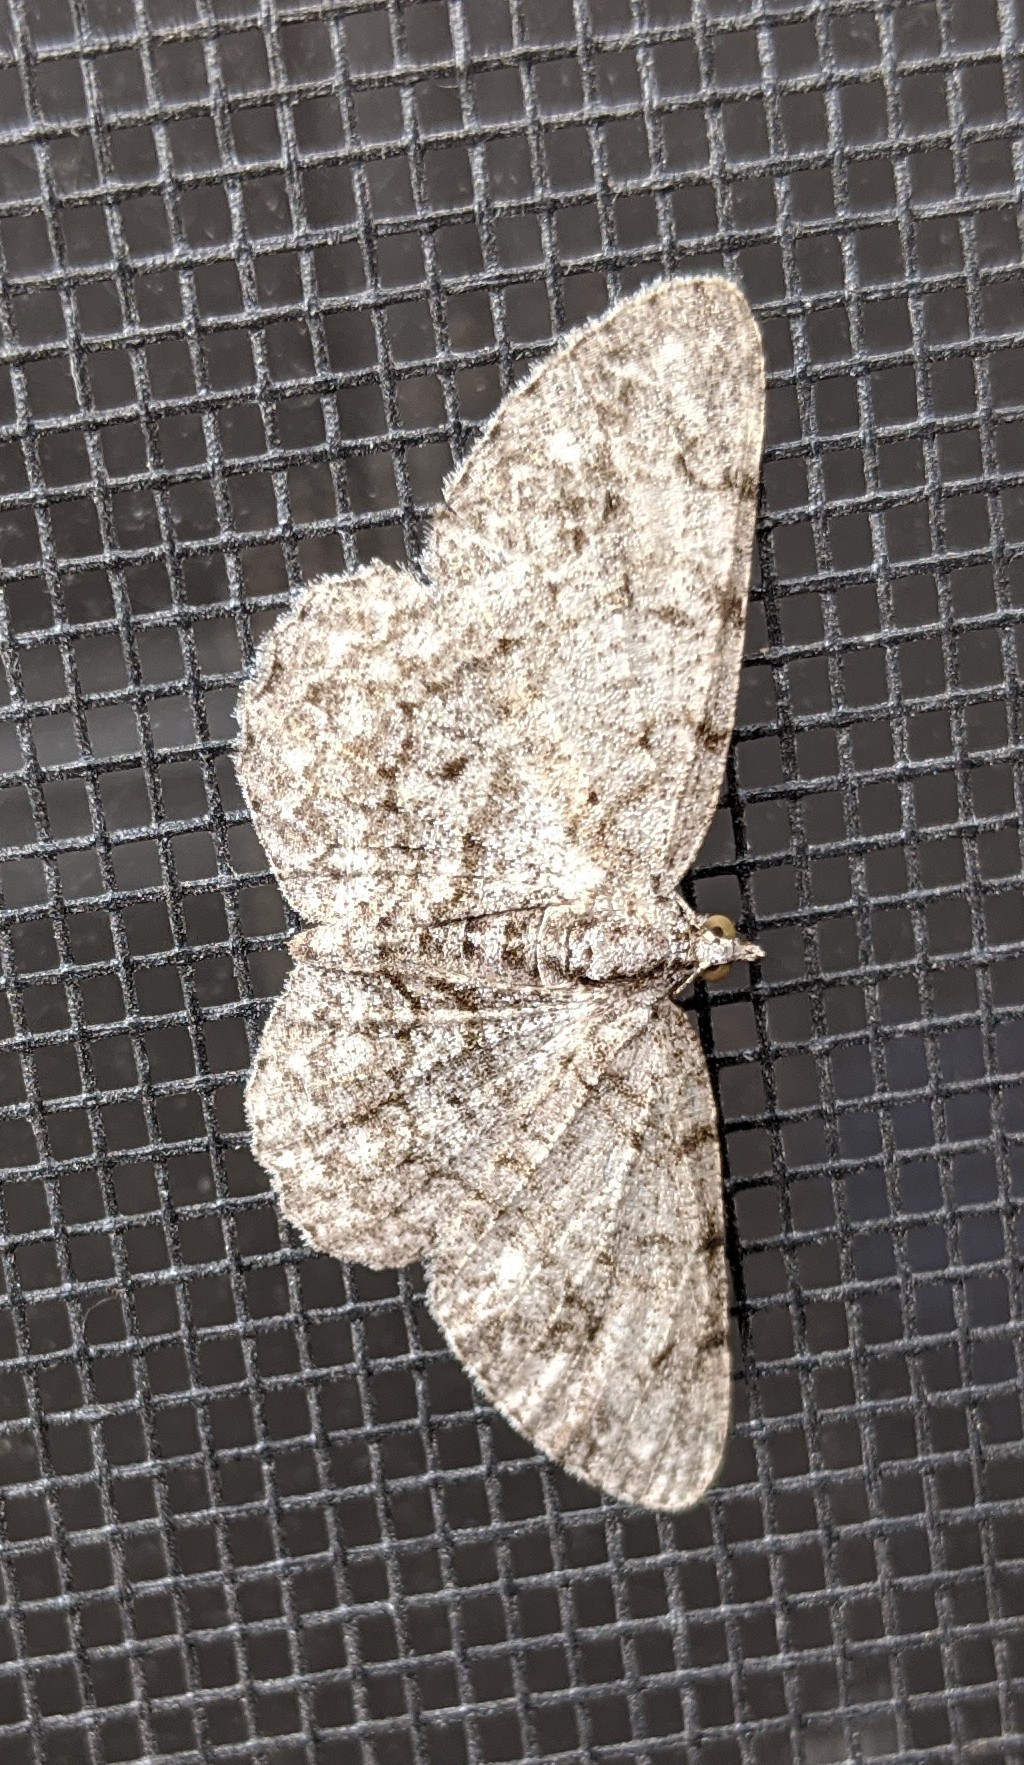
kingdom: Animalia
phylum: Arthropoda
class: Insecta
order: Lepidoptera
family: Geometridae
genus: Protoboarmia
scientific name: Protoboarmia porcelaria
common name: Porcelain gray
